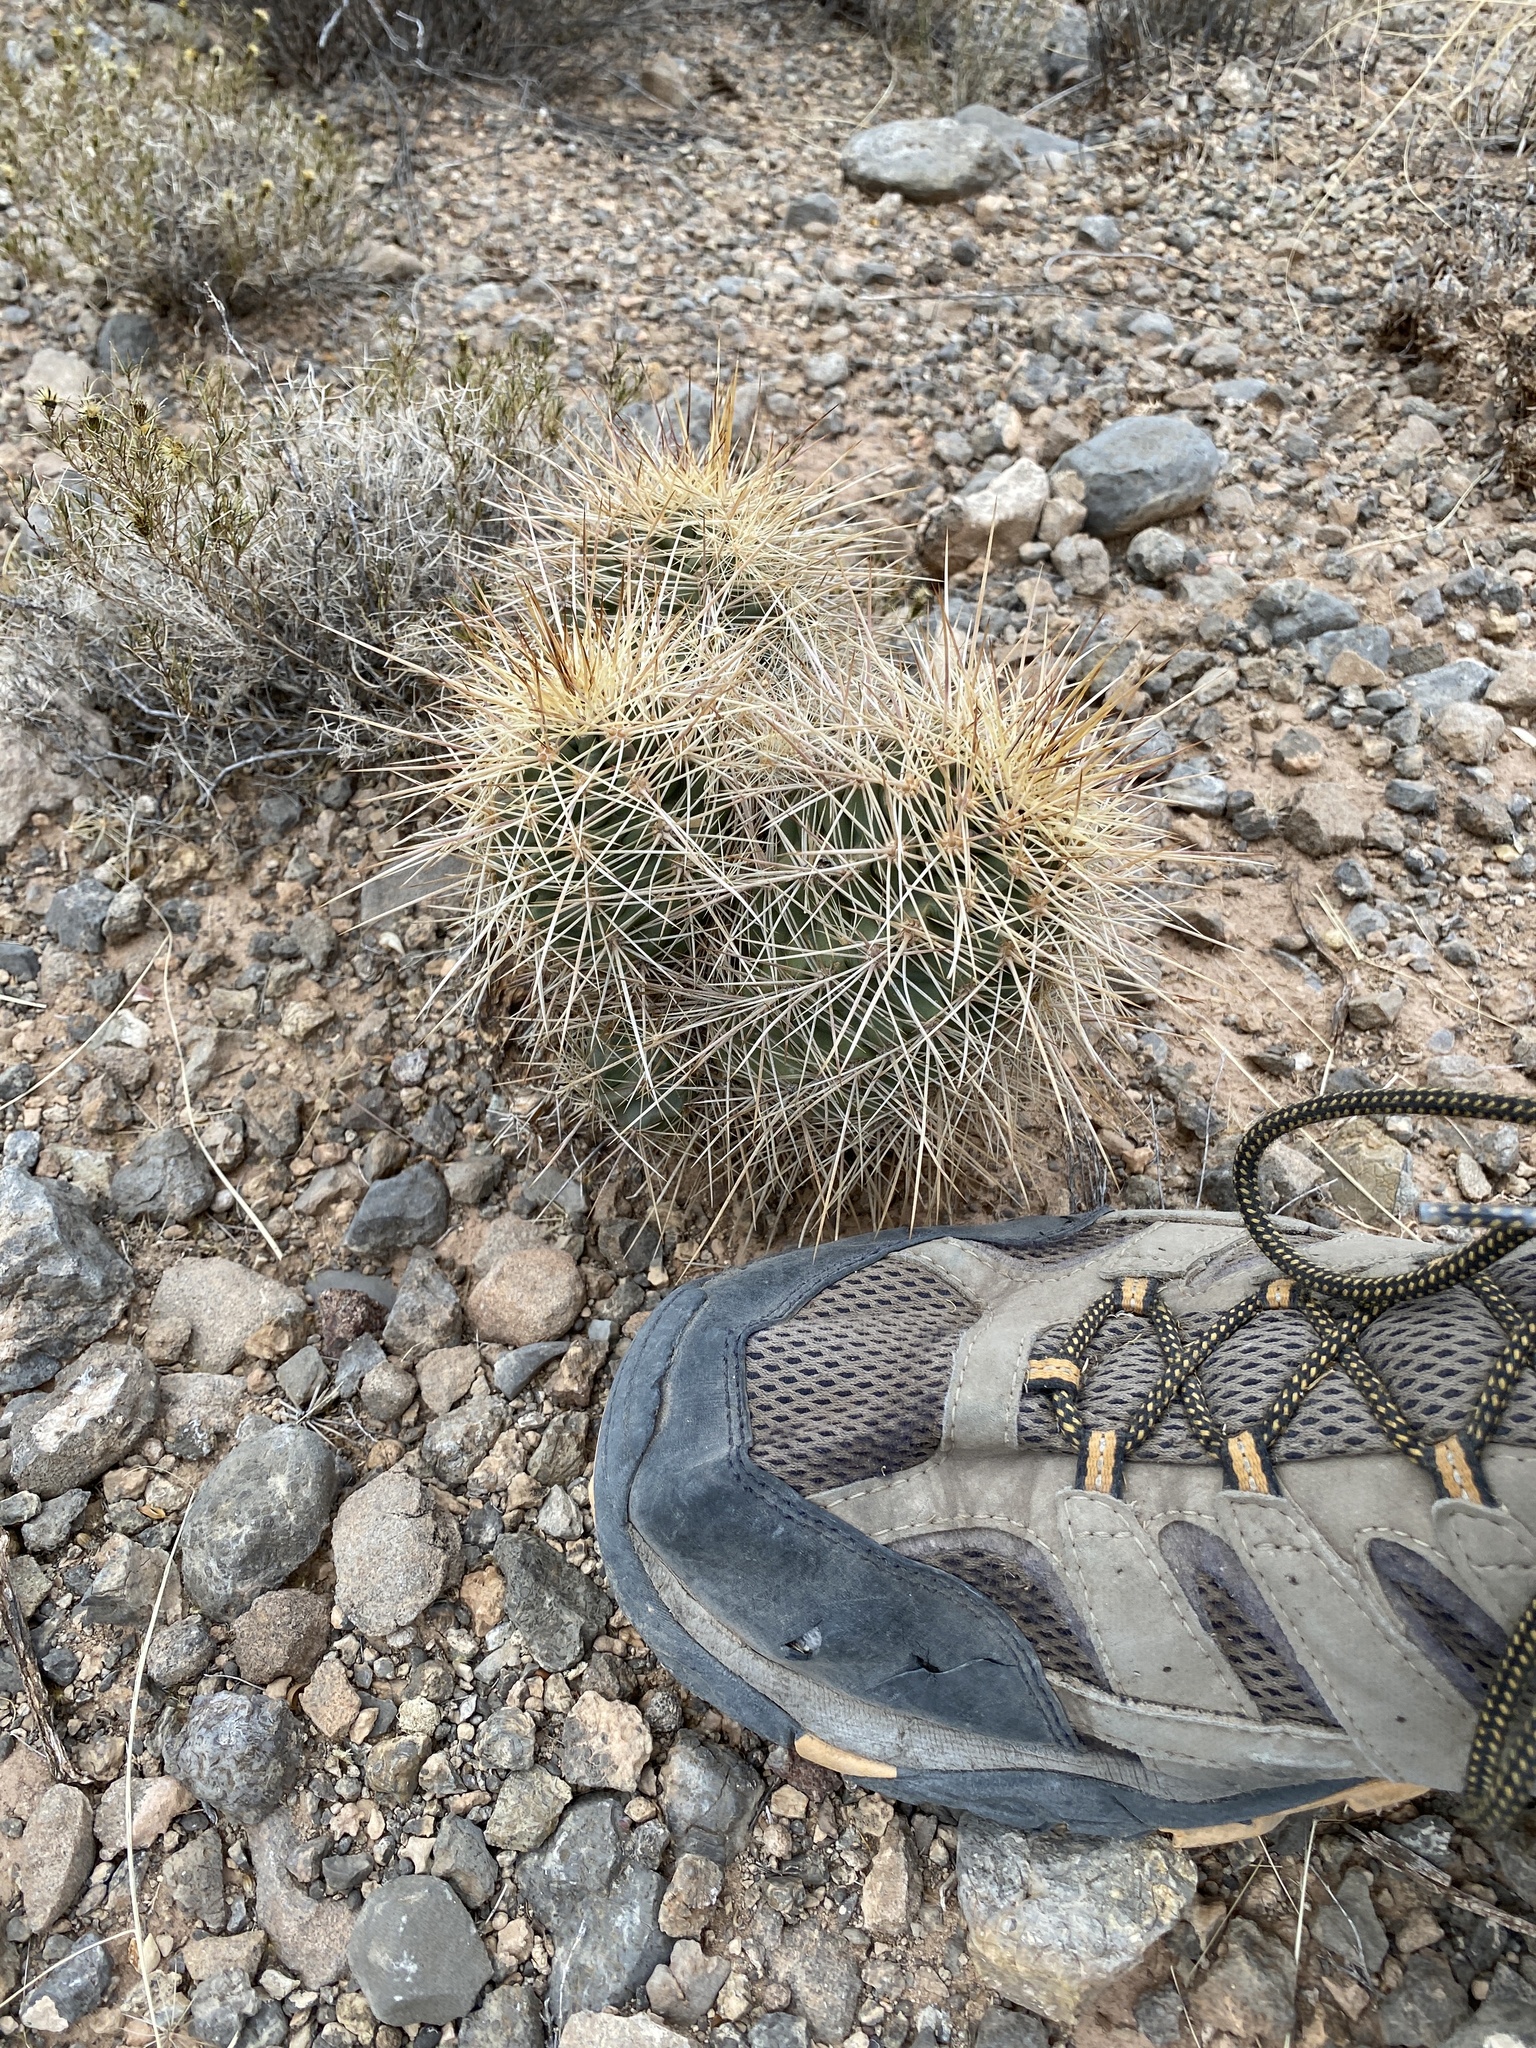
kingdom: Plantae
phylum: Tracheophyta
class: Magnoliopsida
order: Caryophyllales
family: Cactaceae
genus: Echinocereus
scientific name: Echinocereus coccineus
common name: Scarlet hedgehog cactus
